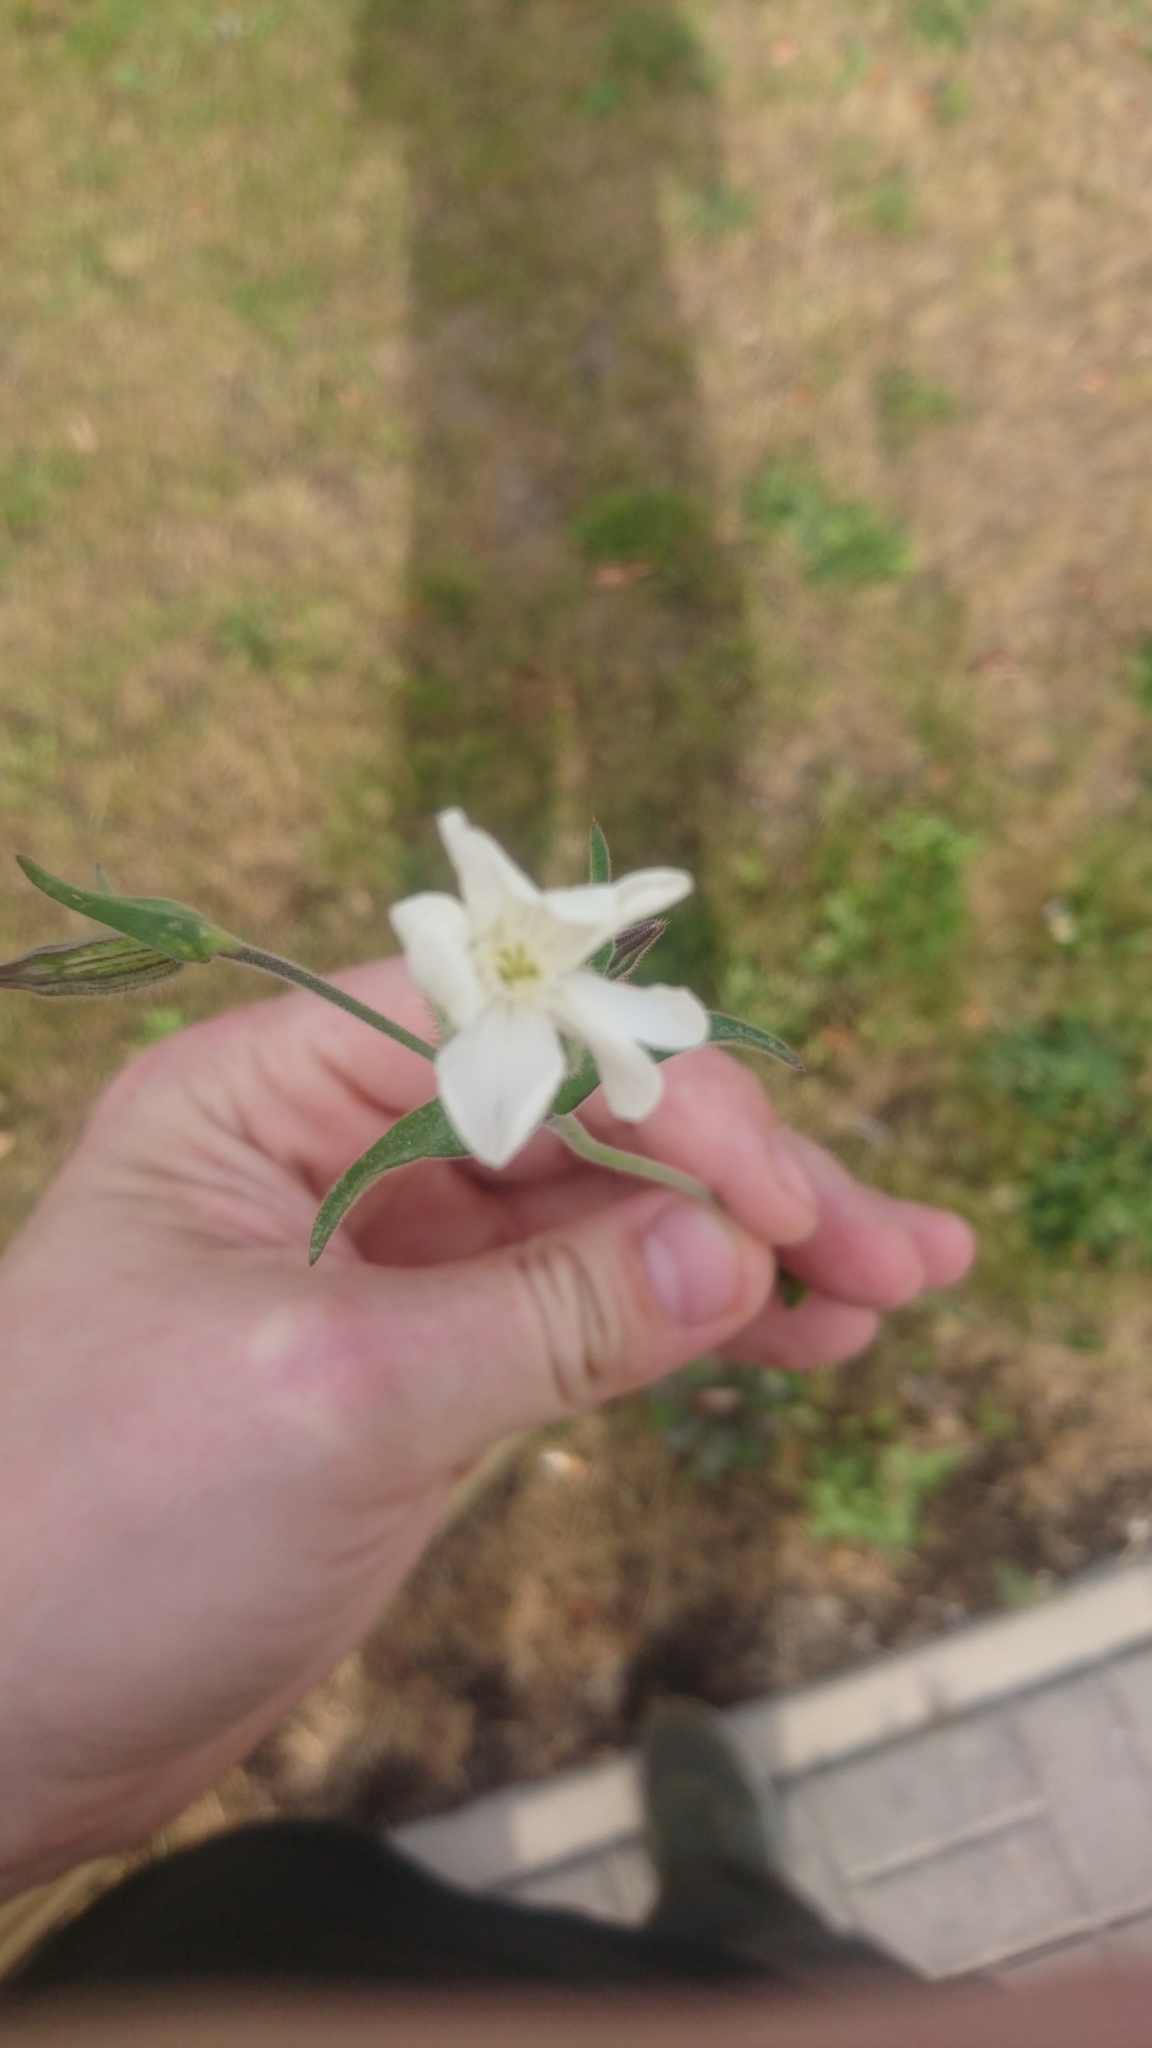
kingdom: Plantae
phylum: Tracheophyta
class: Magnoliopsida
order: Caryophyllales
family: Caryophyllaceae
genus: Silene
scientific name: Silene latifolia
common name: White campion
